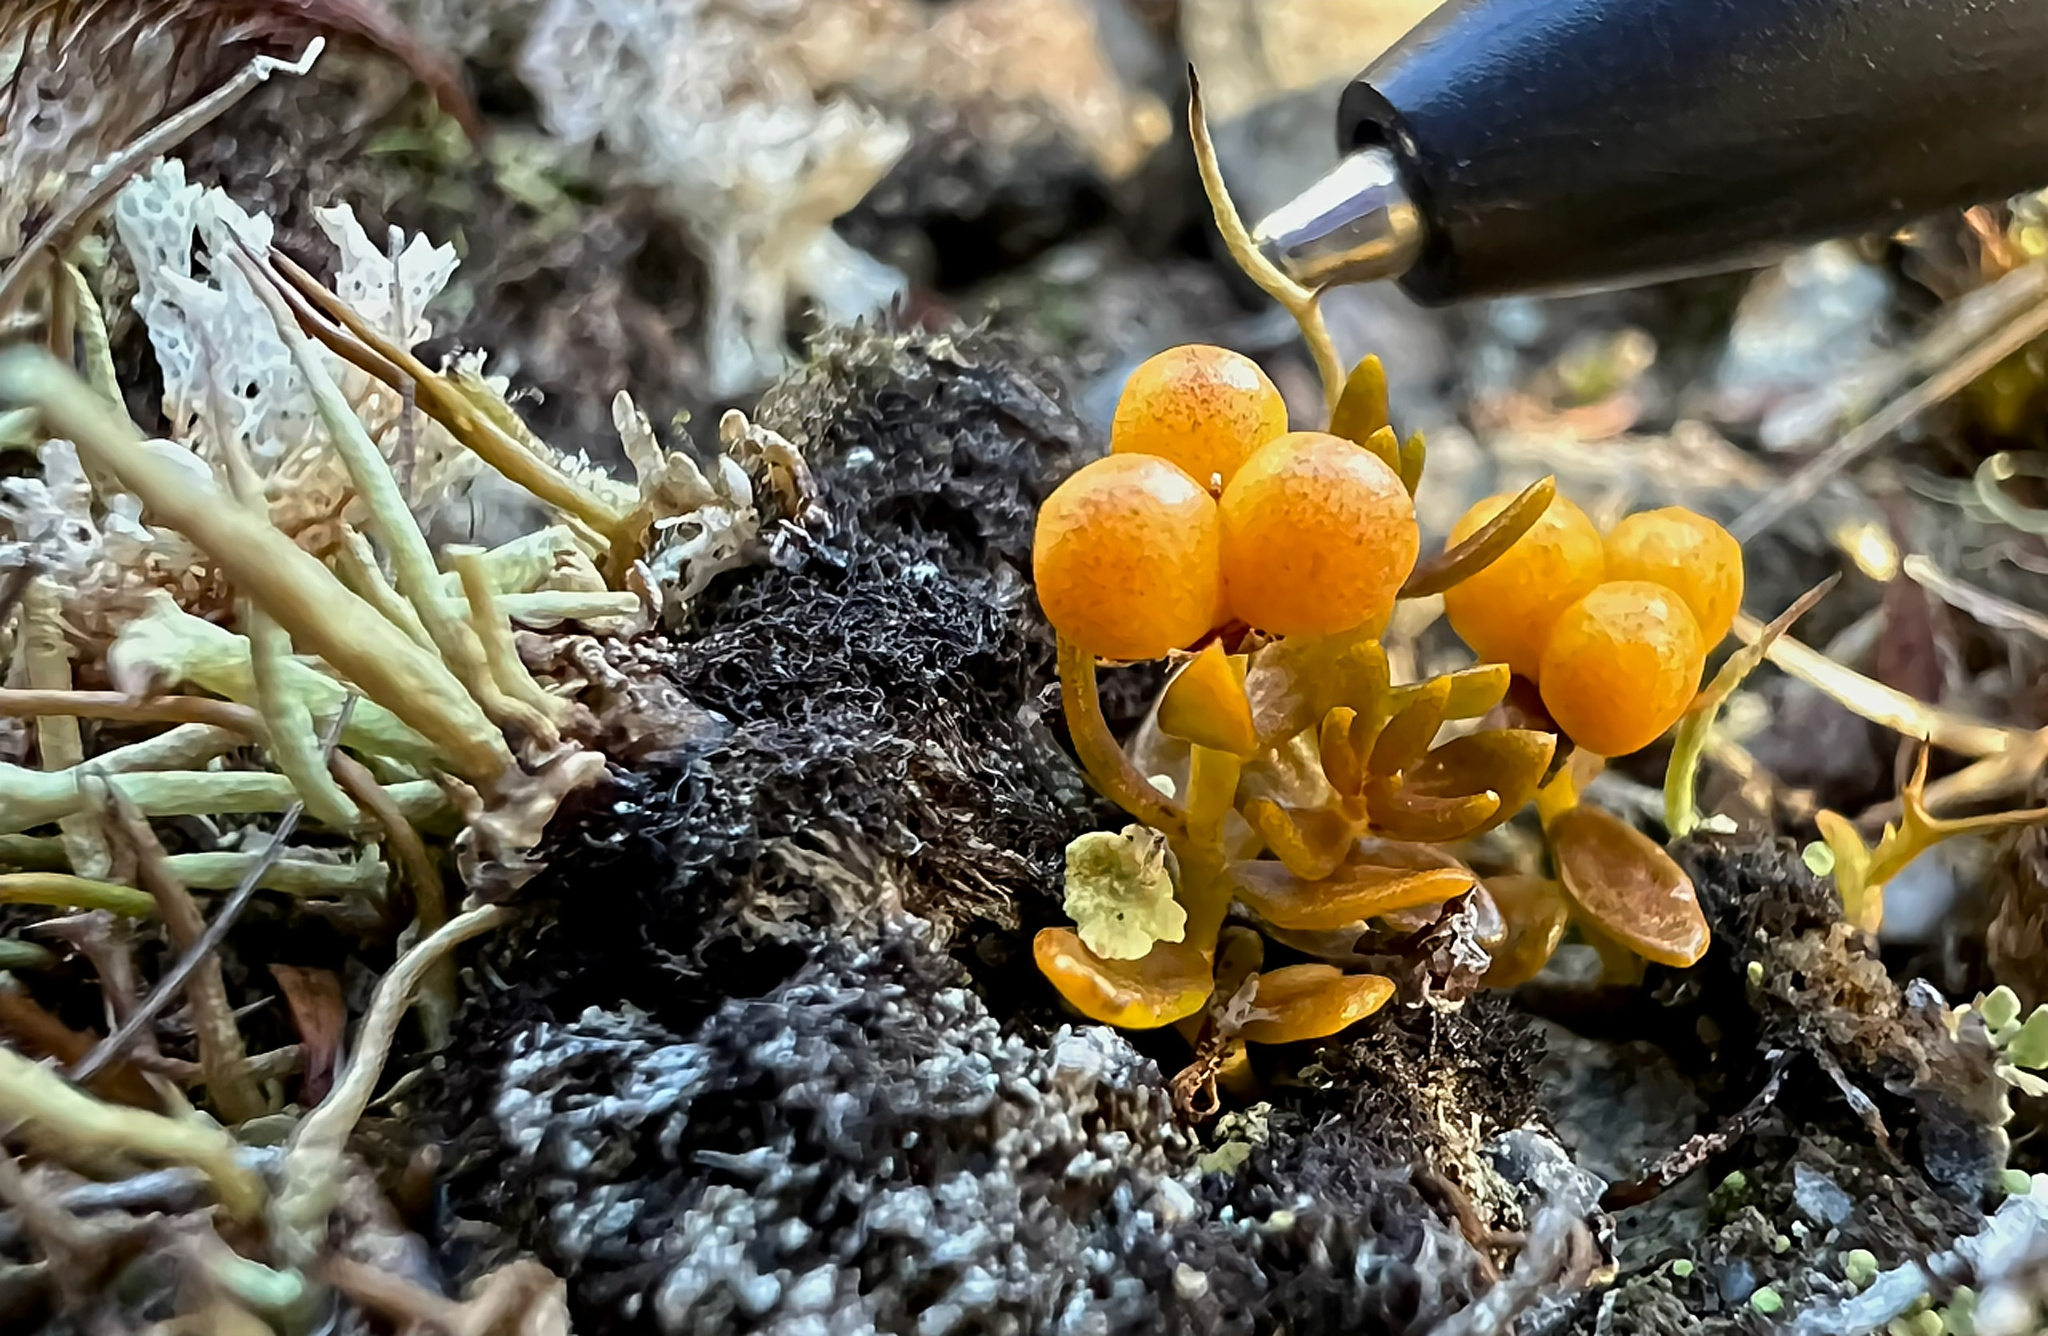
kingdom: Plantae
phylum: Tracheophyta
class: Magnoliopsida
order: Celastrales
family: Celastraceae
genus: Stackhousia
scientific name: Stackhousia minima
